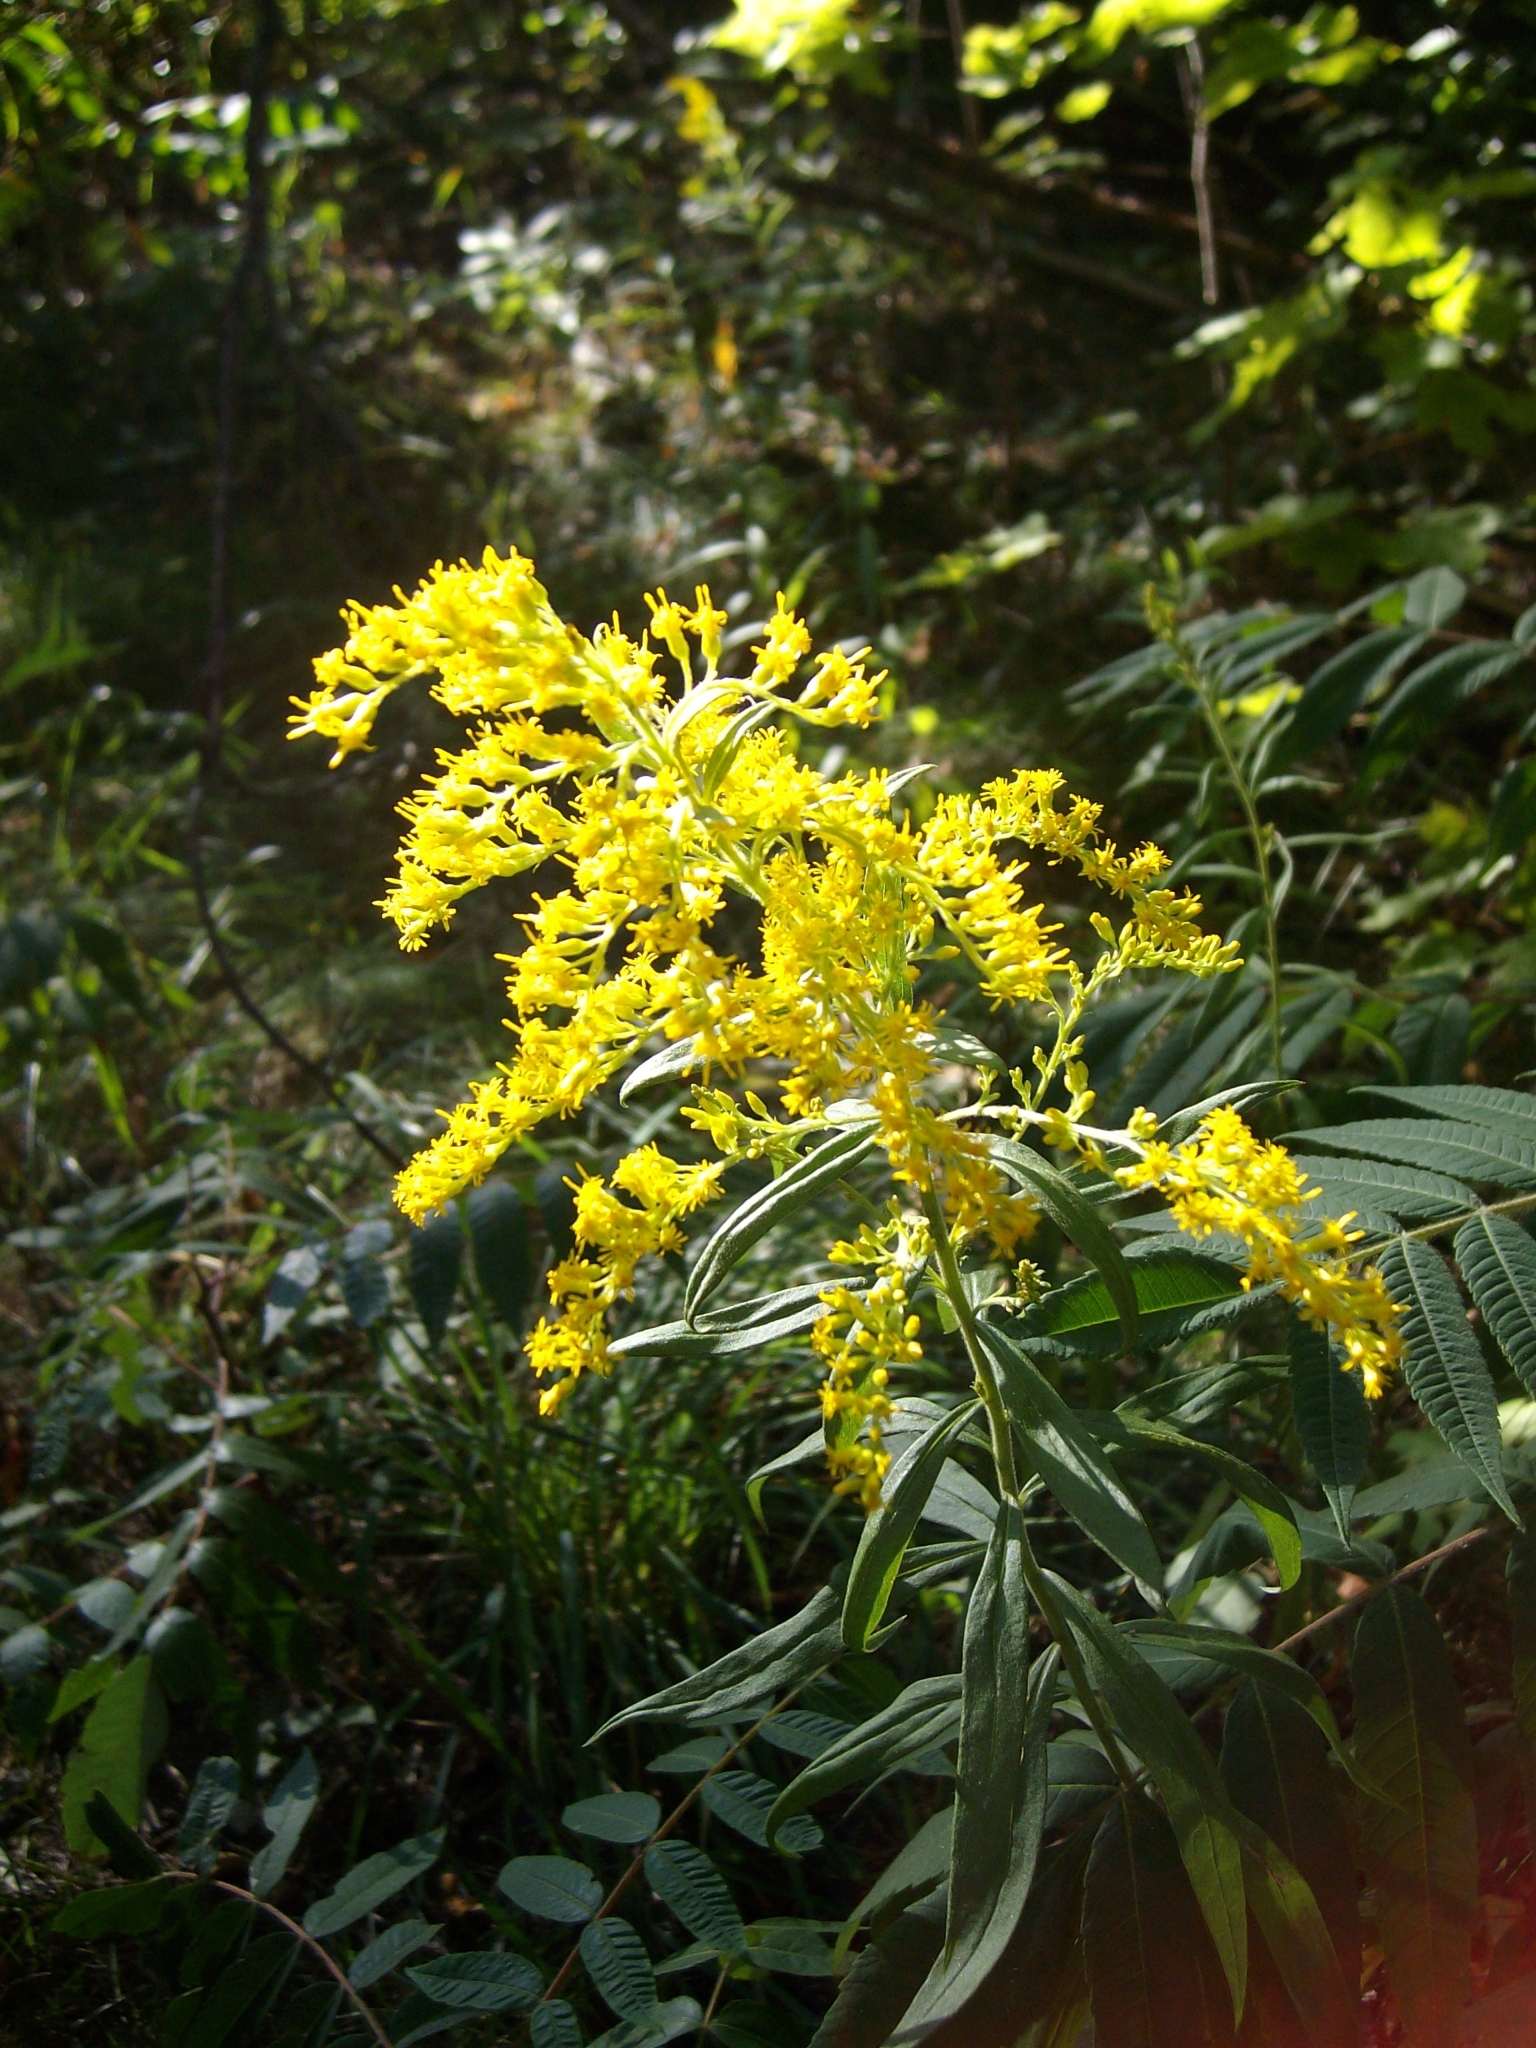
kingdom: Plantae
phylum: Tracheophyta
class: Magnoliopsida
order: Asterales
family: Asteraceae
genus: Solidago
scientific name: Solidago altissima
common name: Late goldenrod
